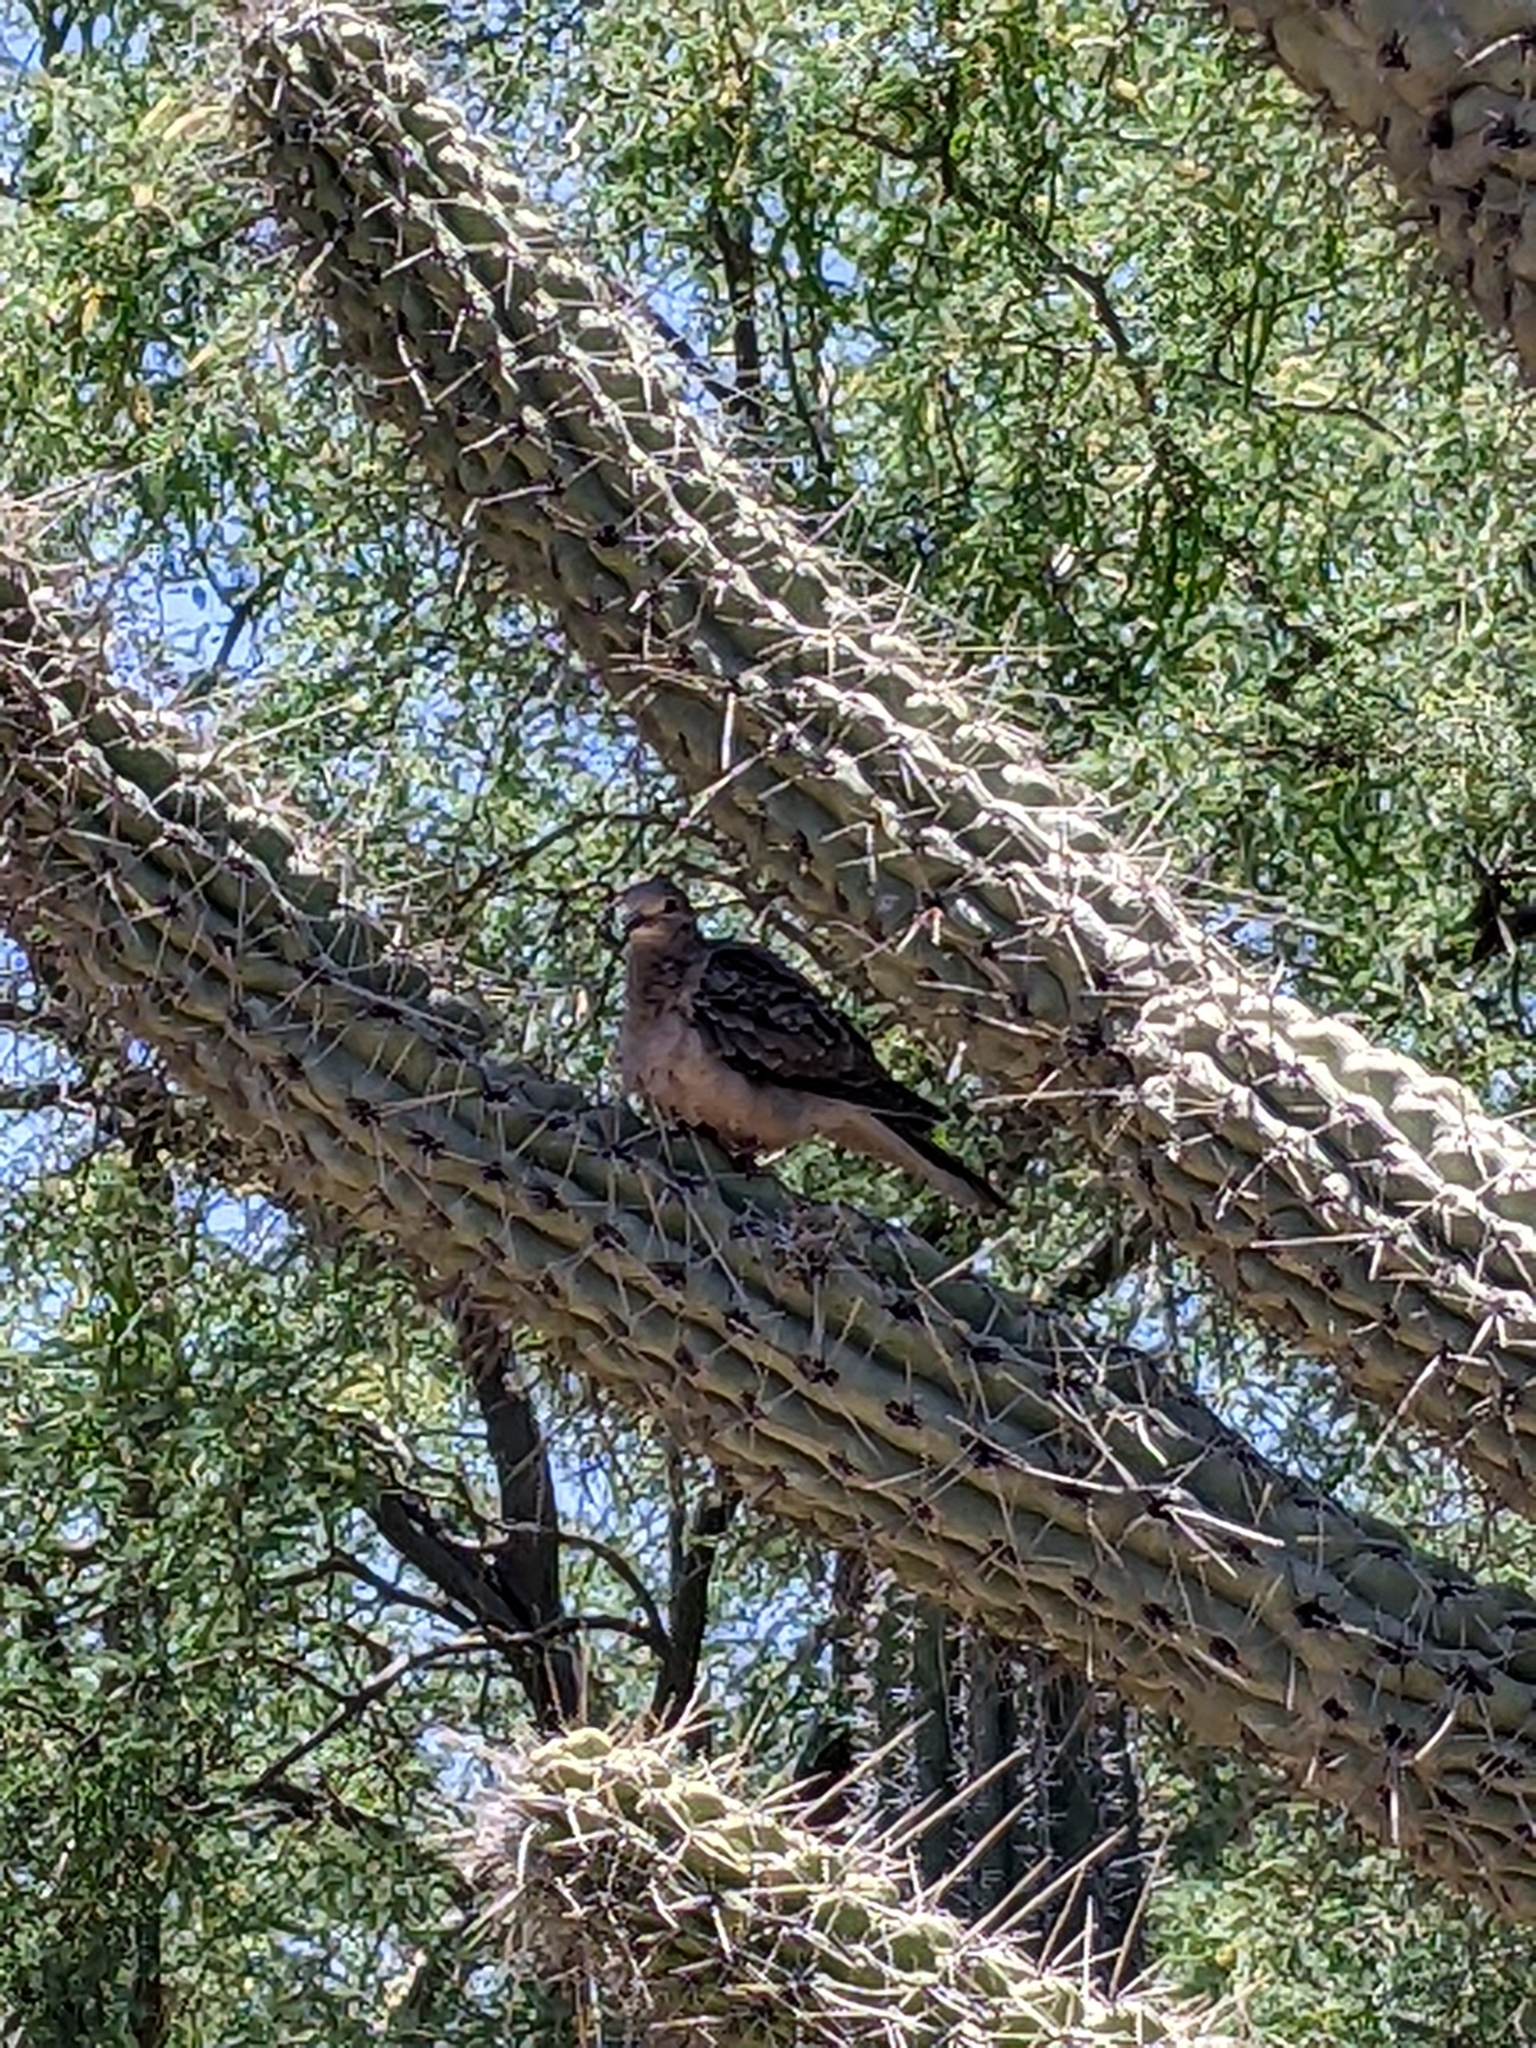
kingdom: Animalia
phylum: Chordata
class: Aves
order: Columbiformes
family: Columbidae
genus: Zenaida
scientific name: Zenaida macroura
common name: Mourning dove
